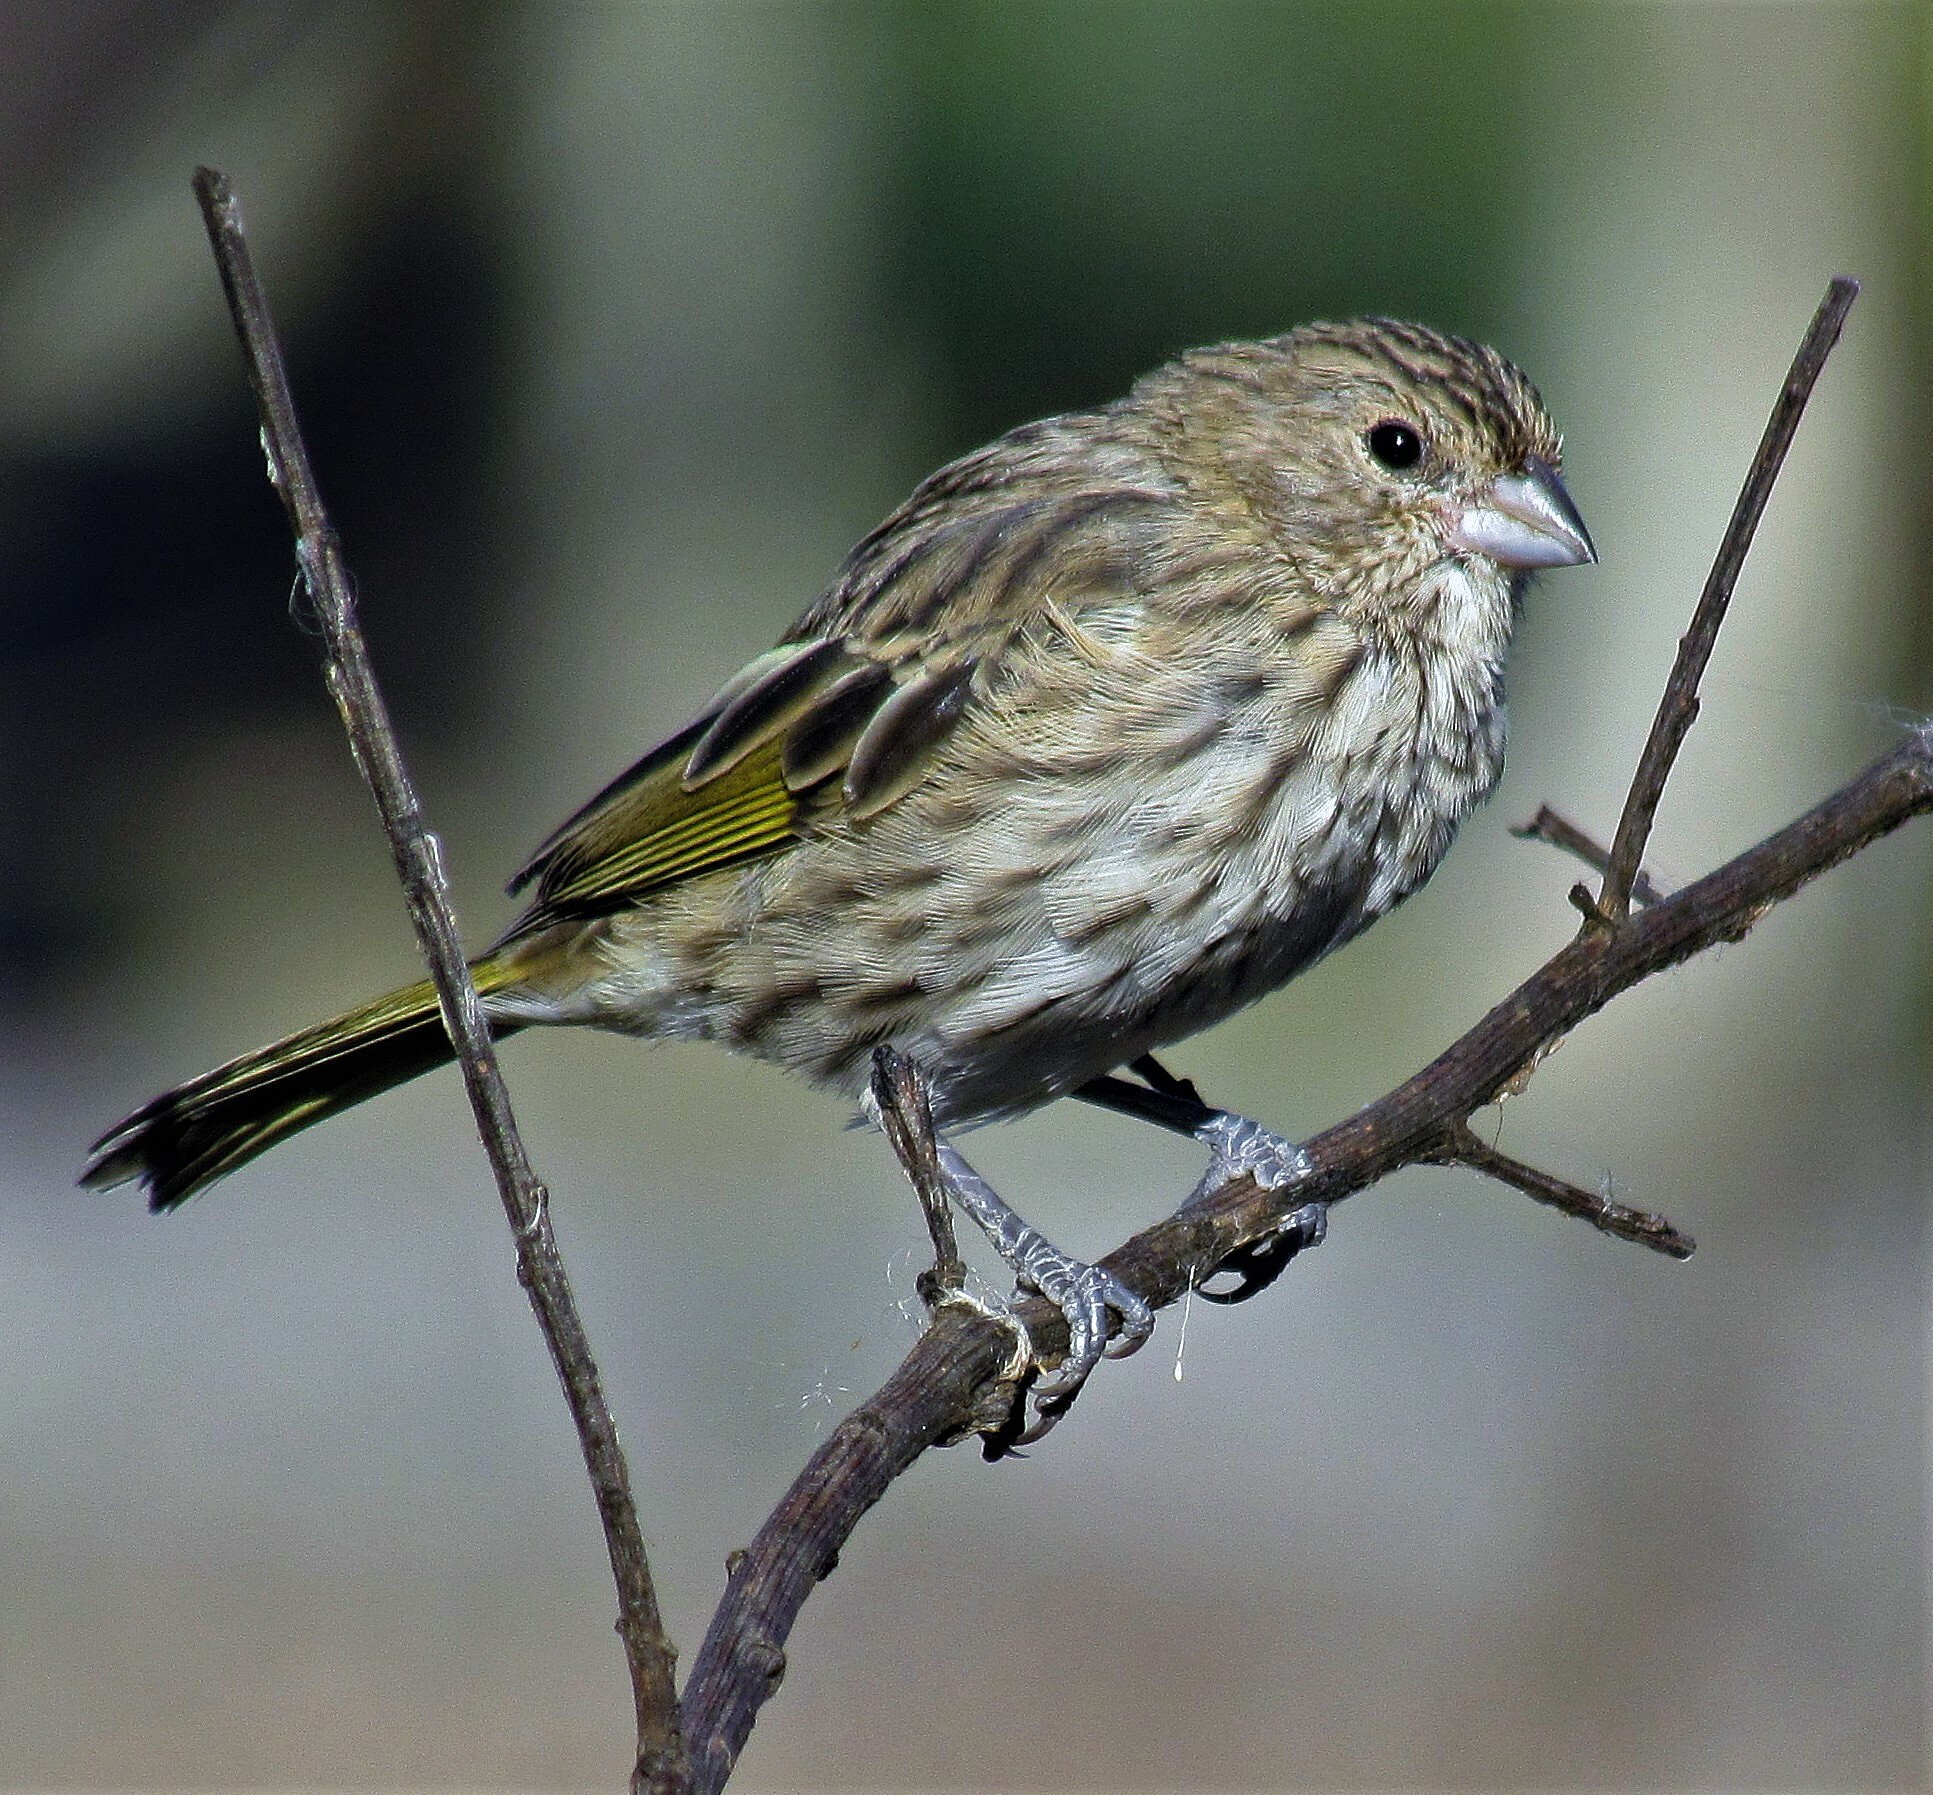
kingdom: Animalia
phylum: Chordata
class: Aves
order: Passeriformes
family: Thraupidae
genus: Sicalis
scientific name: Sicalis flaveola
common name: Saffron finch
